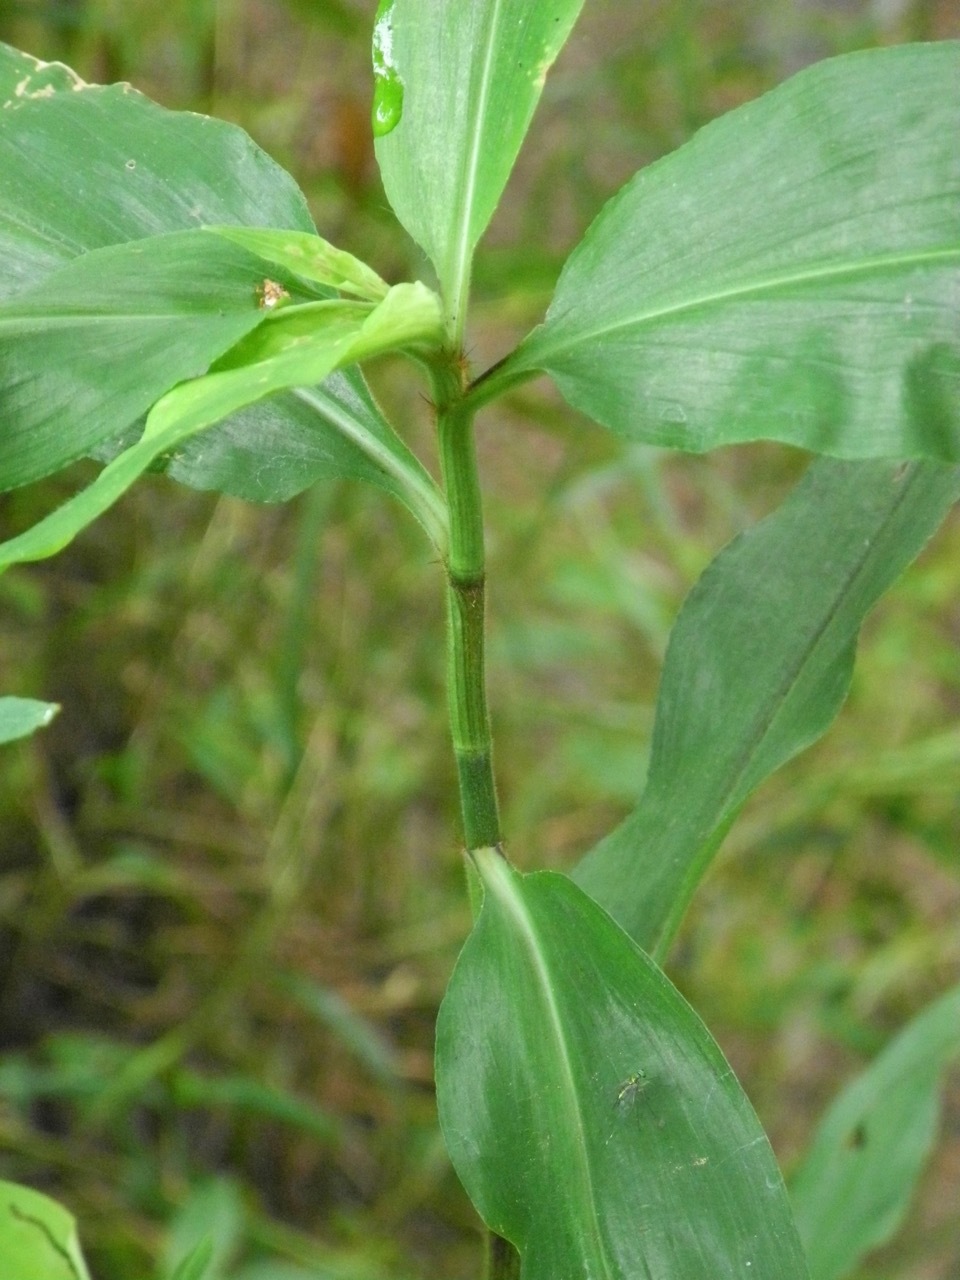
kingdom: Plantae
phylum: Tracheophyta
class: Liliopsida
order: Commelinales
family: Commelinaceae
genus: Commelina
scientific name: Commelina virginica
